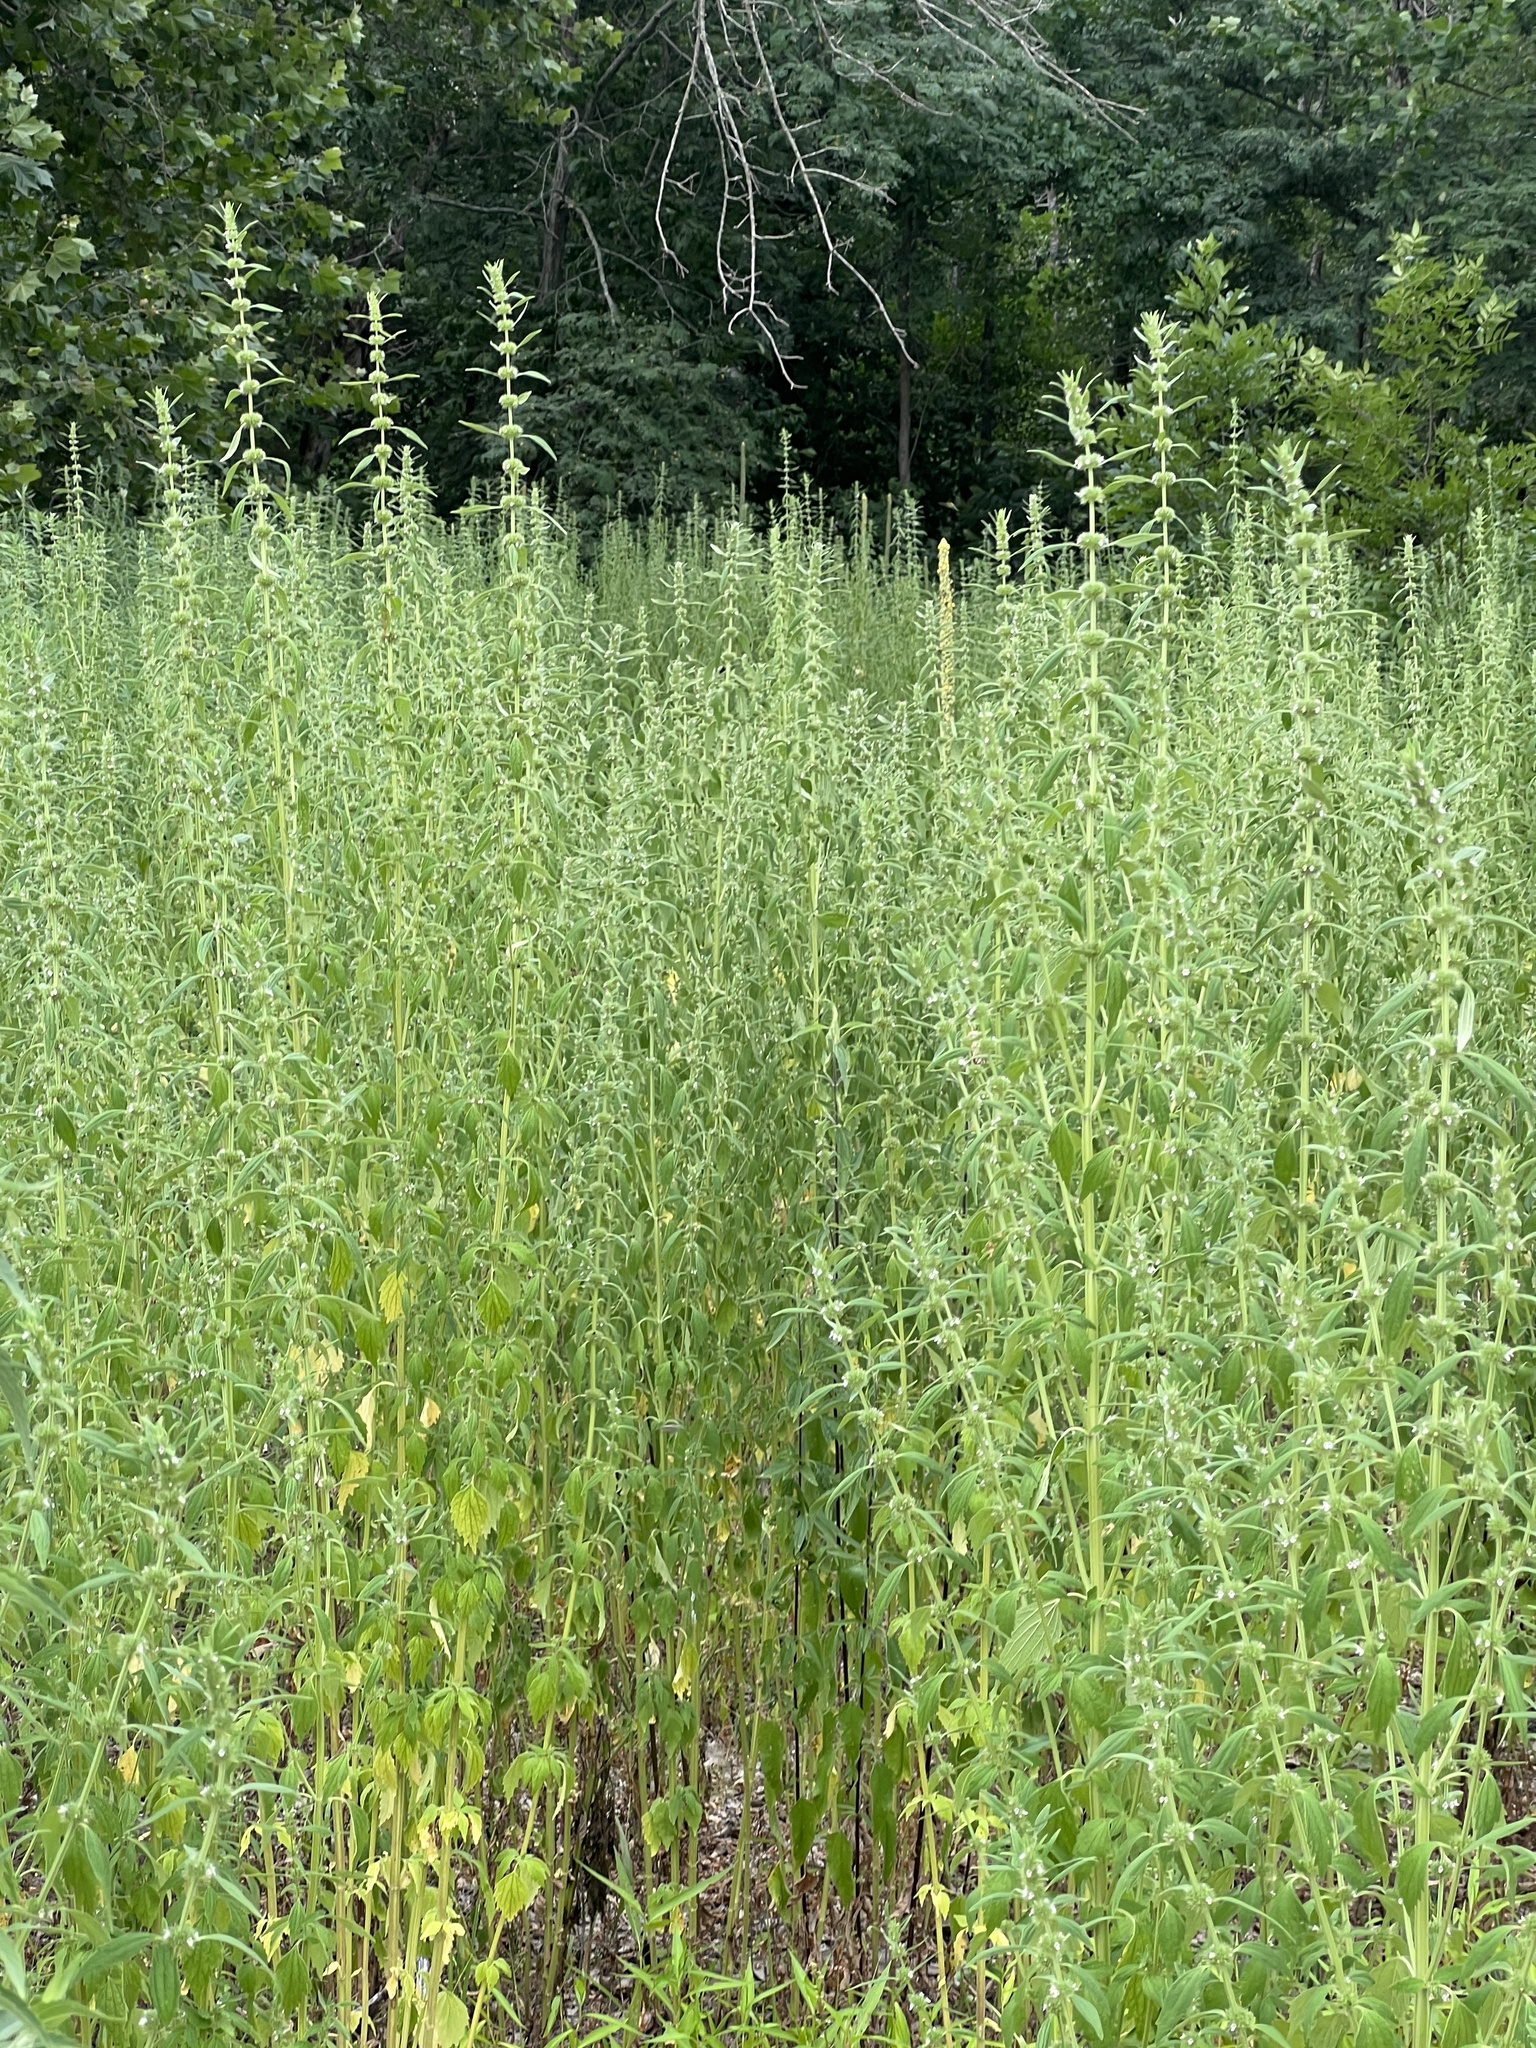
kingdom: Plantae
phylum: Tracheophyta
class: Magnoliopsida
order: Lamiales
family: Lamiaceae
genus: Chaiturus
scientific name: Chaiturus marrubiastrum
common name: Lion's tail
